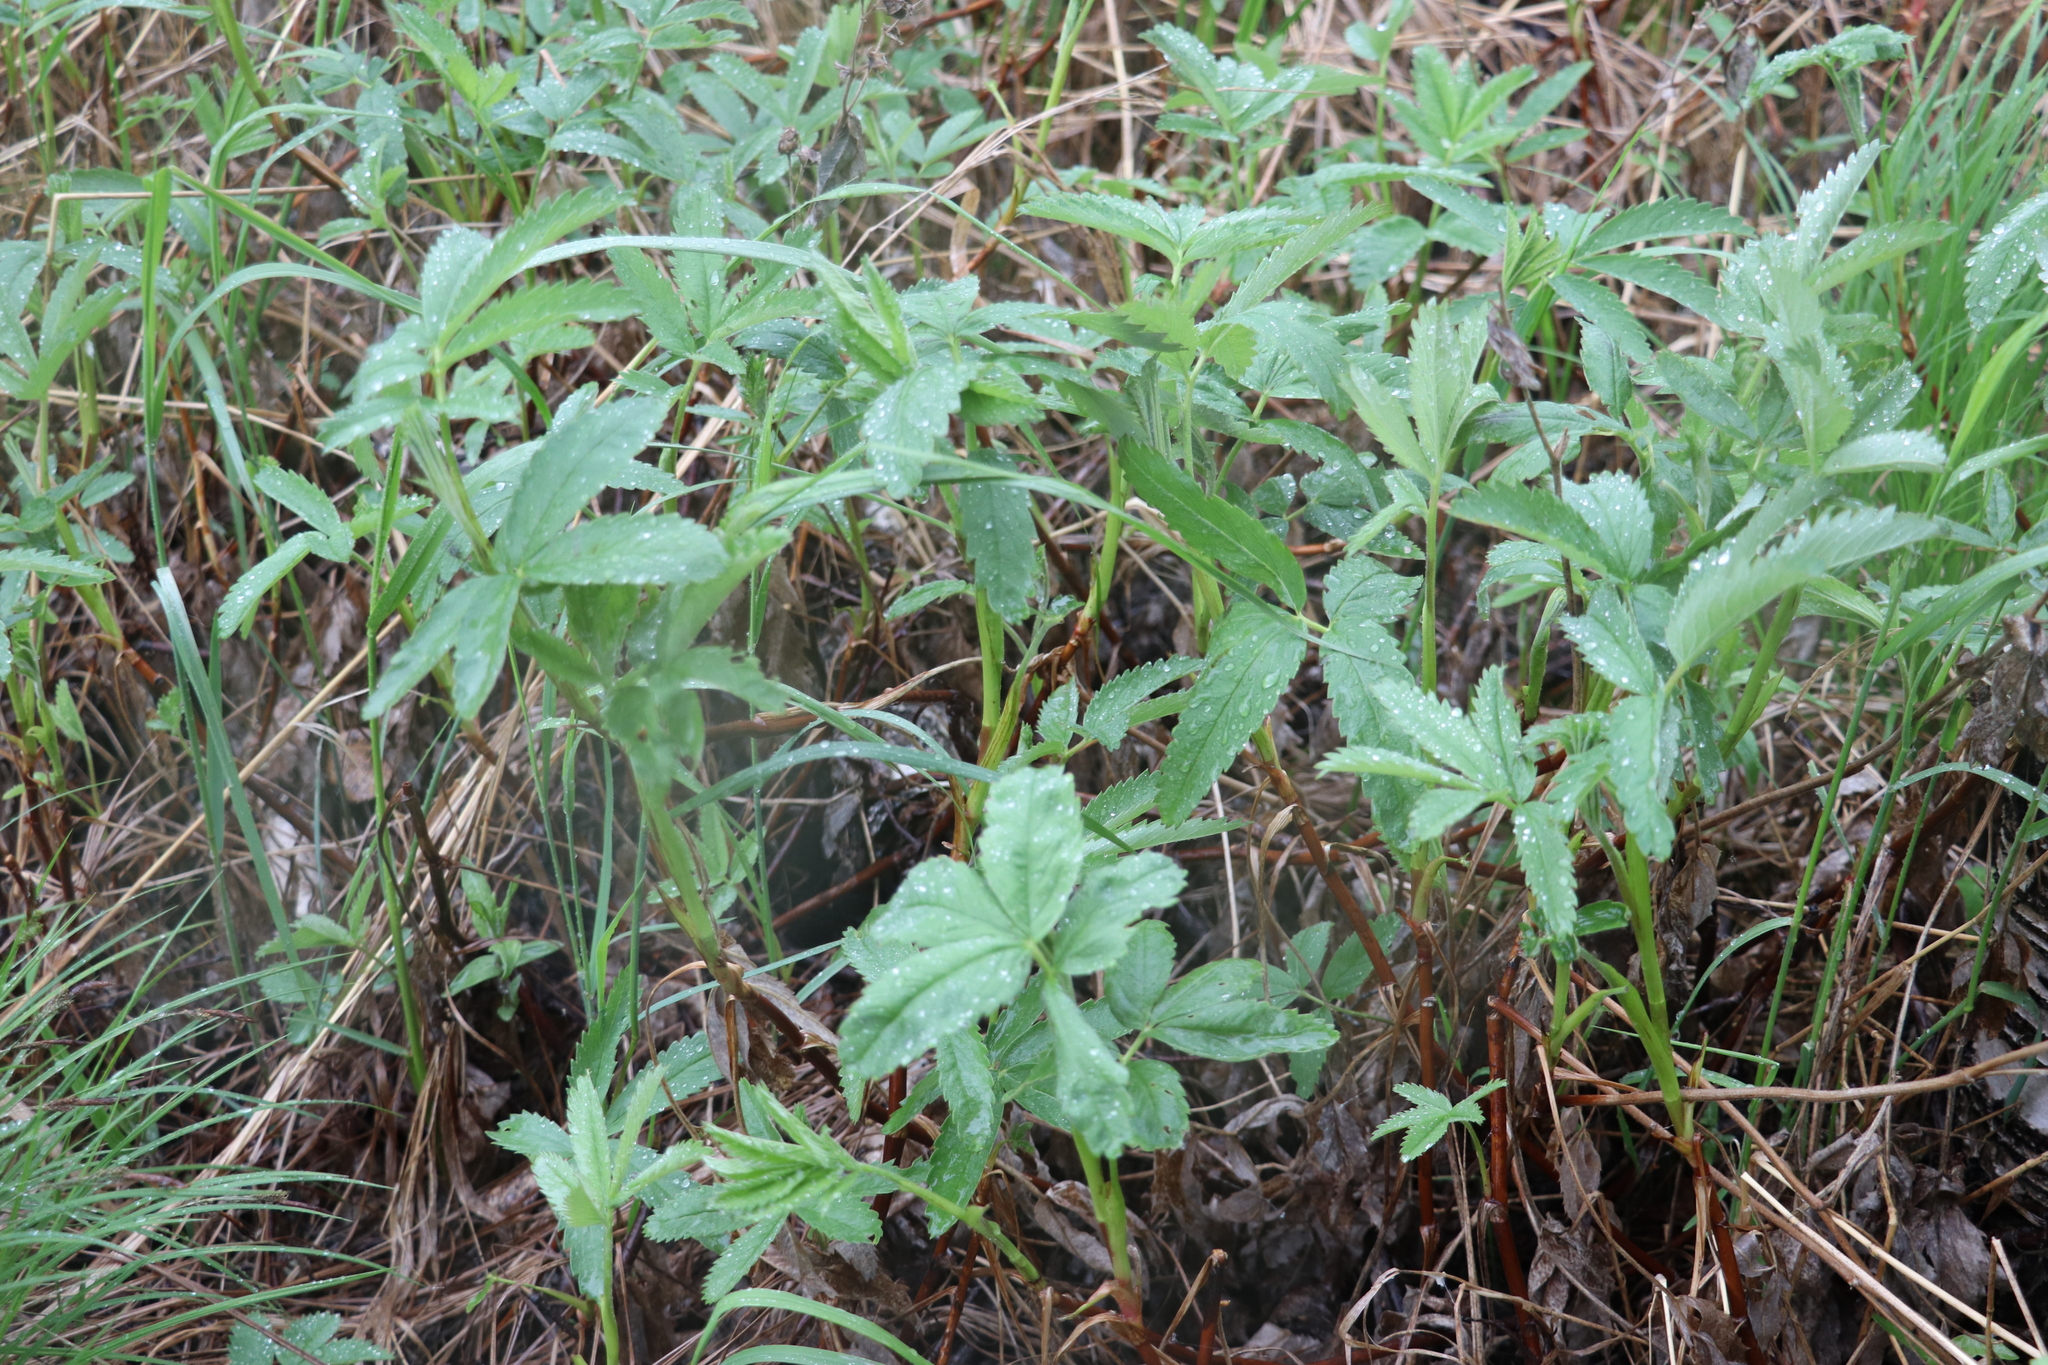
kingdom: Plantae
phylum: Tracheophyta
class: Magnoliopsida
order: Rosales
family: Rosaceae
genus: Comarum
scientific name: Comarum palustre
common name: Marsh cinquefoil
